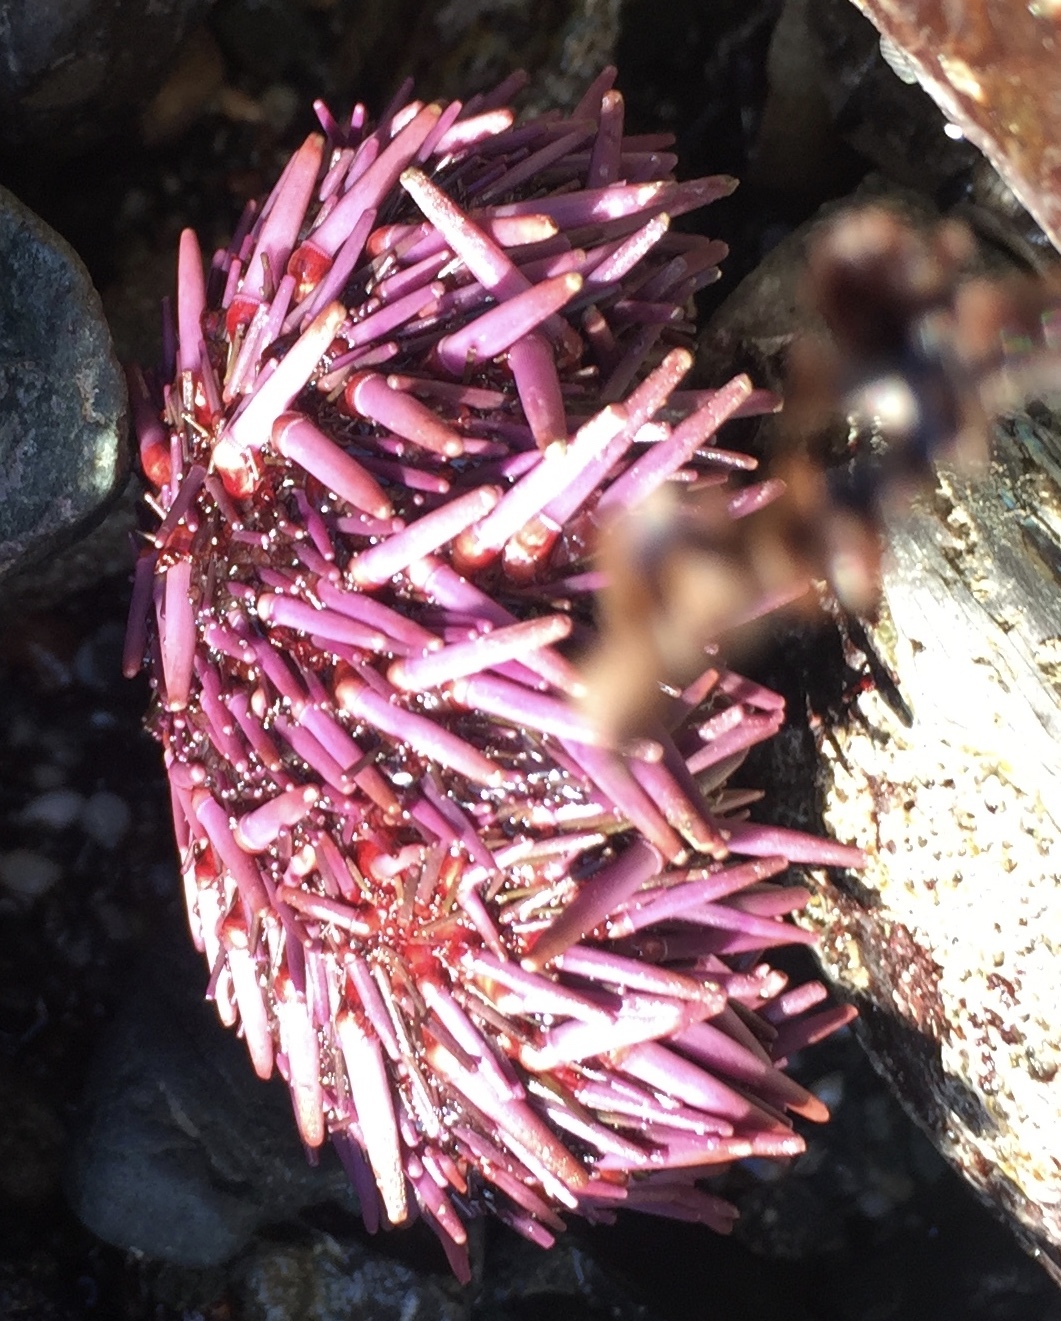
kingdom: Animalia
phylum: Echinodermata
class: Echinoidea
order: Camarodonta
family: Strongylocentrotidae
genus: Strongylocentrotus
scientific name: Strongylocentrotus purpuratus
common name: Purple sea urchin
